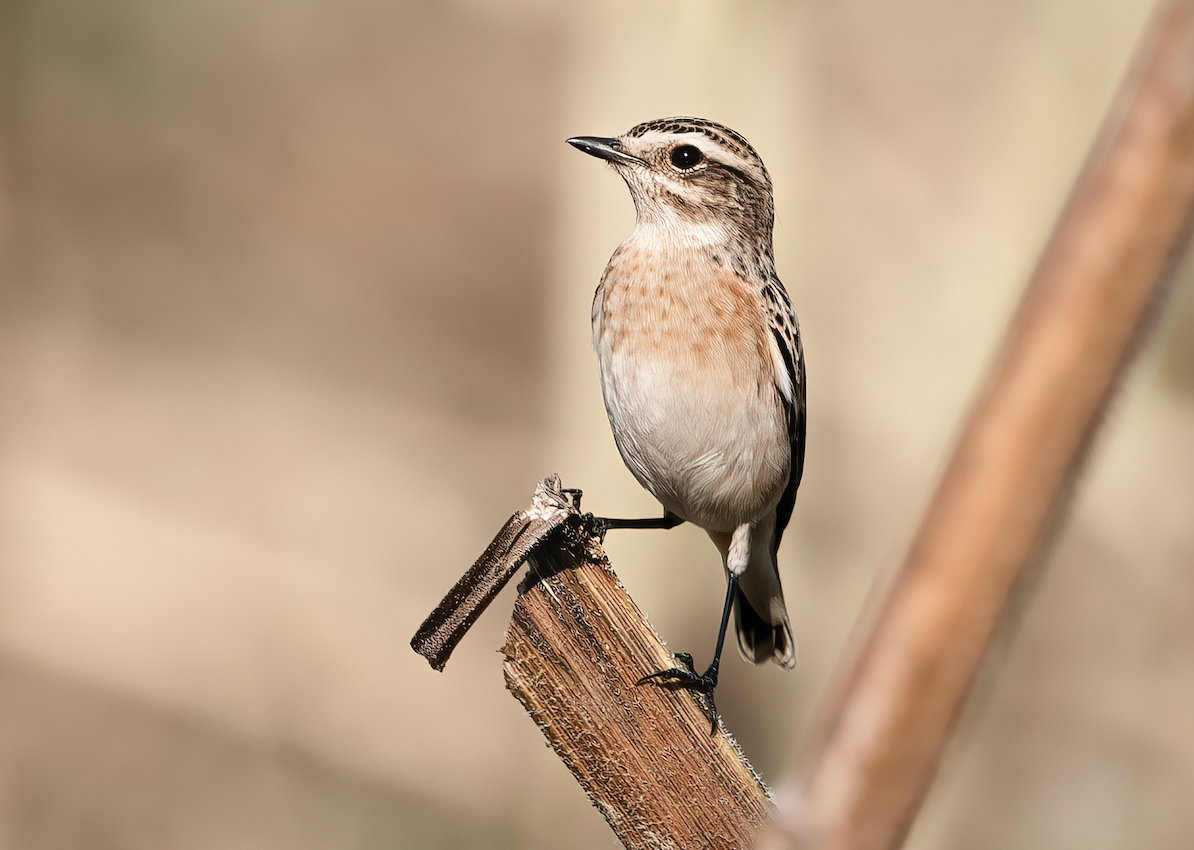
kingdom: Animalia
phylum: Chordata
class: Aves
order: Passeriformes
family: Muscicapidae
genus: Saxicola
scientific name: Saxicola rubetra
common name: Whinchat
